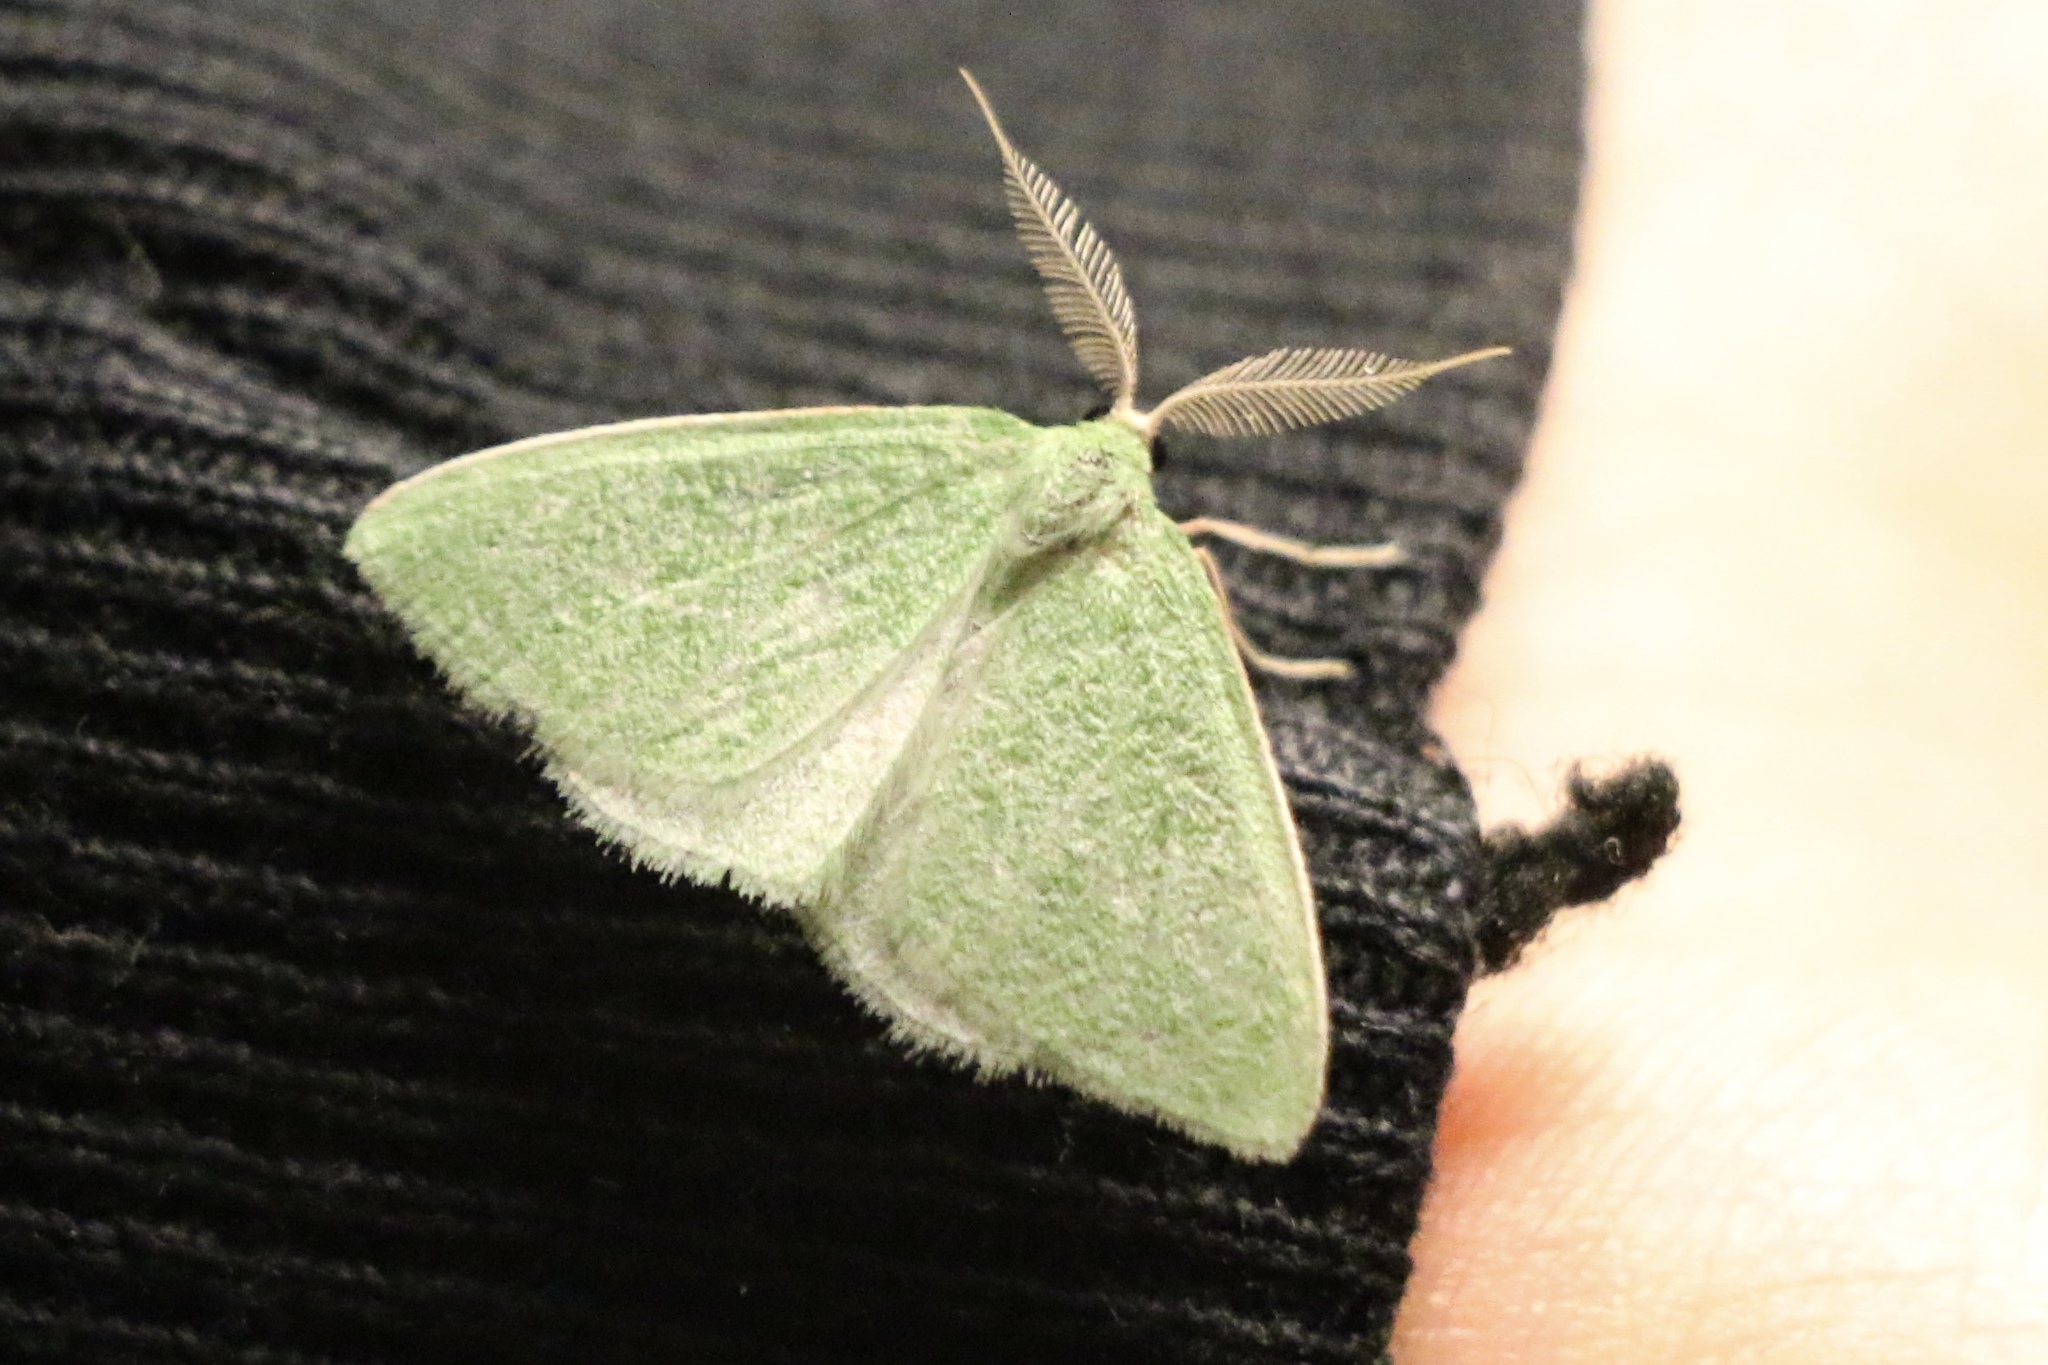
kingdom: Animalia
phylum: Arthropoda
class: Insecta
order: Lepidoptera
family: Geometridae
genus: Synchlora
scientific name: Synchlora faseolaria
